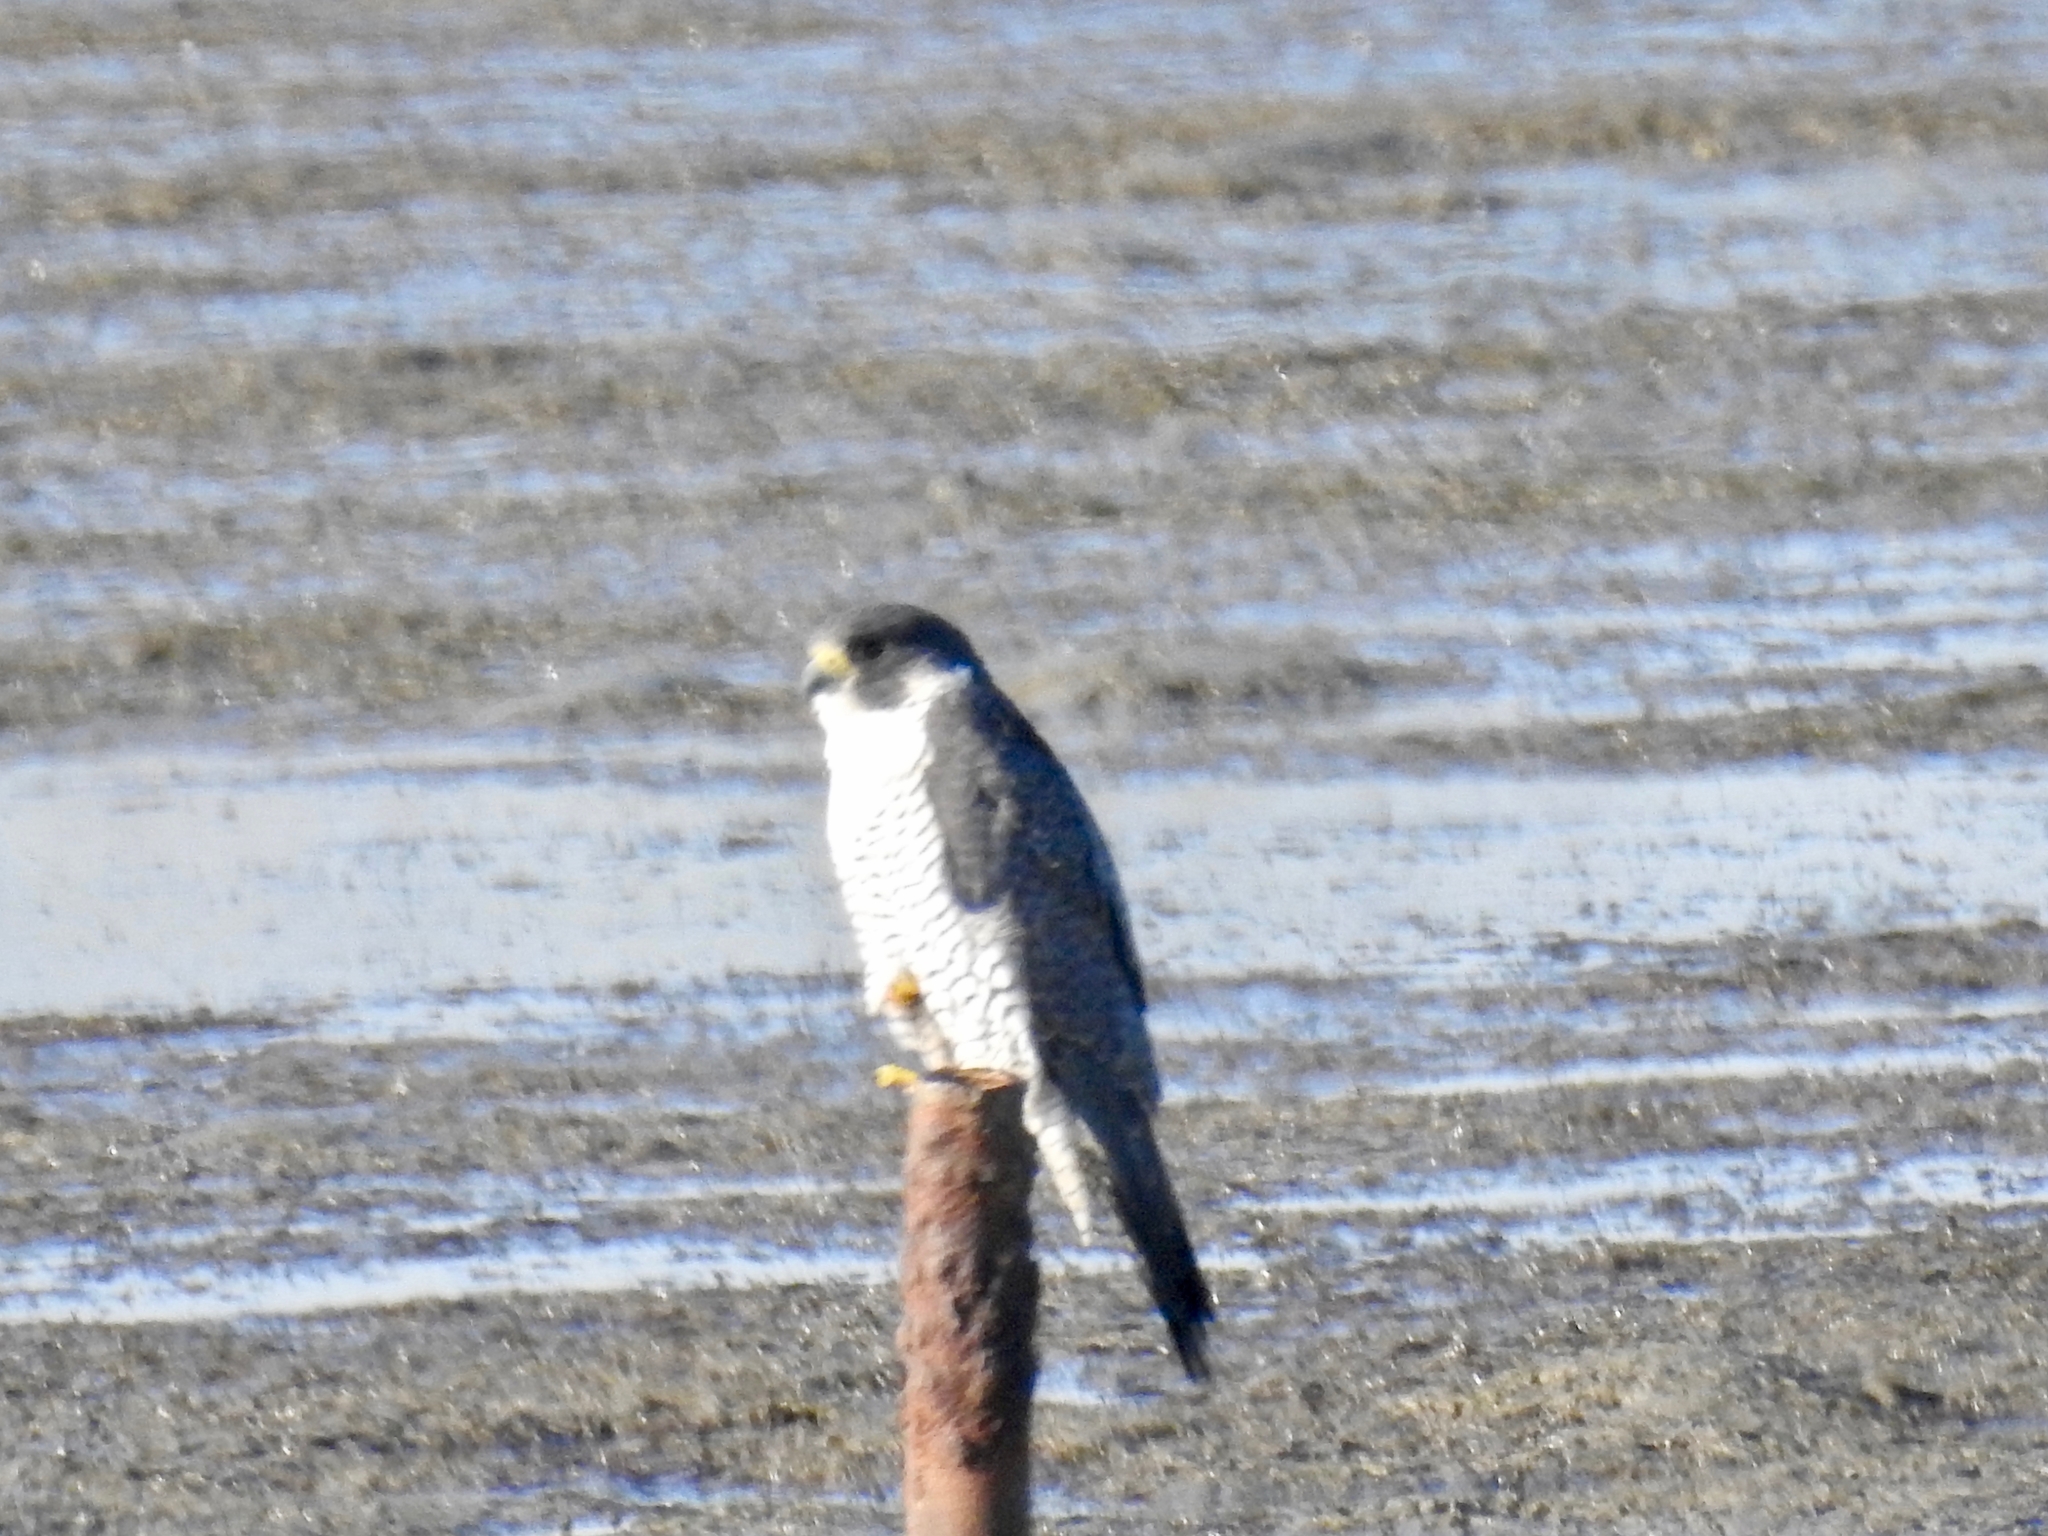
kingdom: Animalia
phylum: Chordata
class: Aves
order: Falconiformes
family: Falconidae
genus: Falco
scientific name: Falco peregrinus
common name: Peregrine falcon
